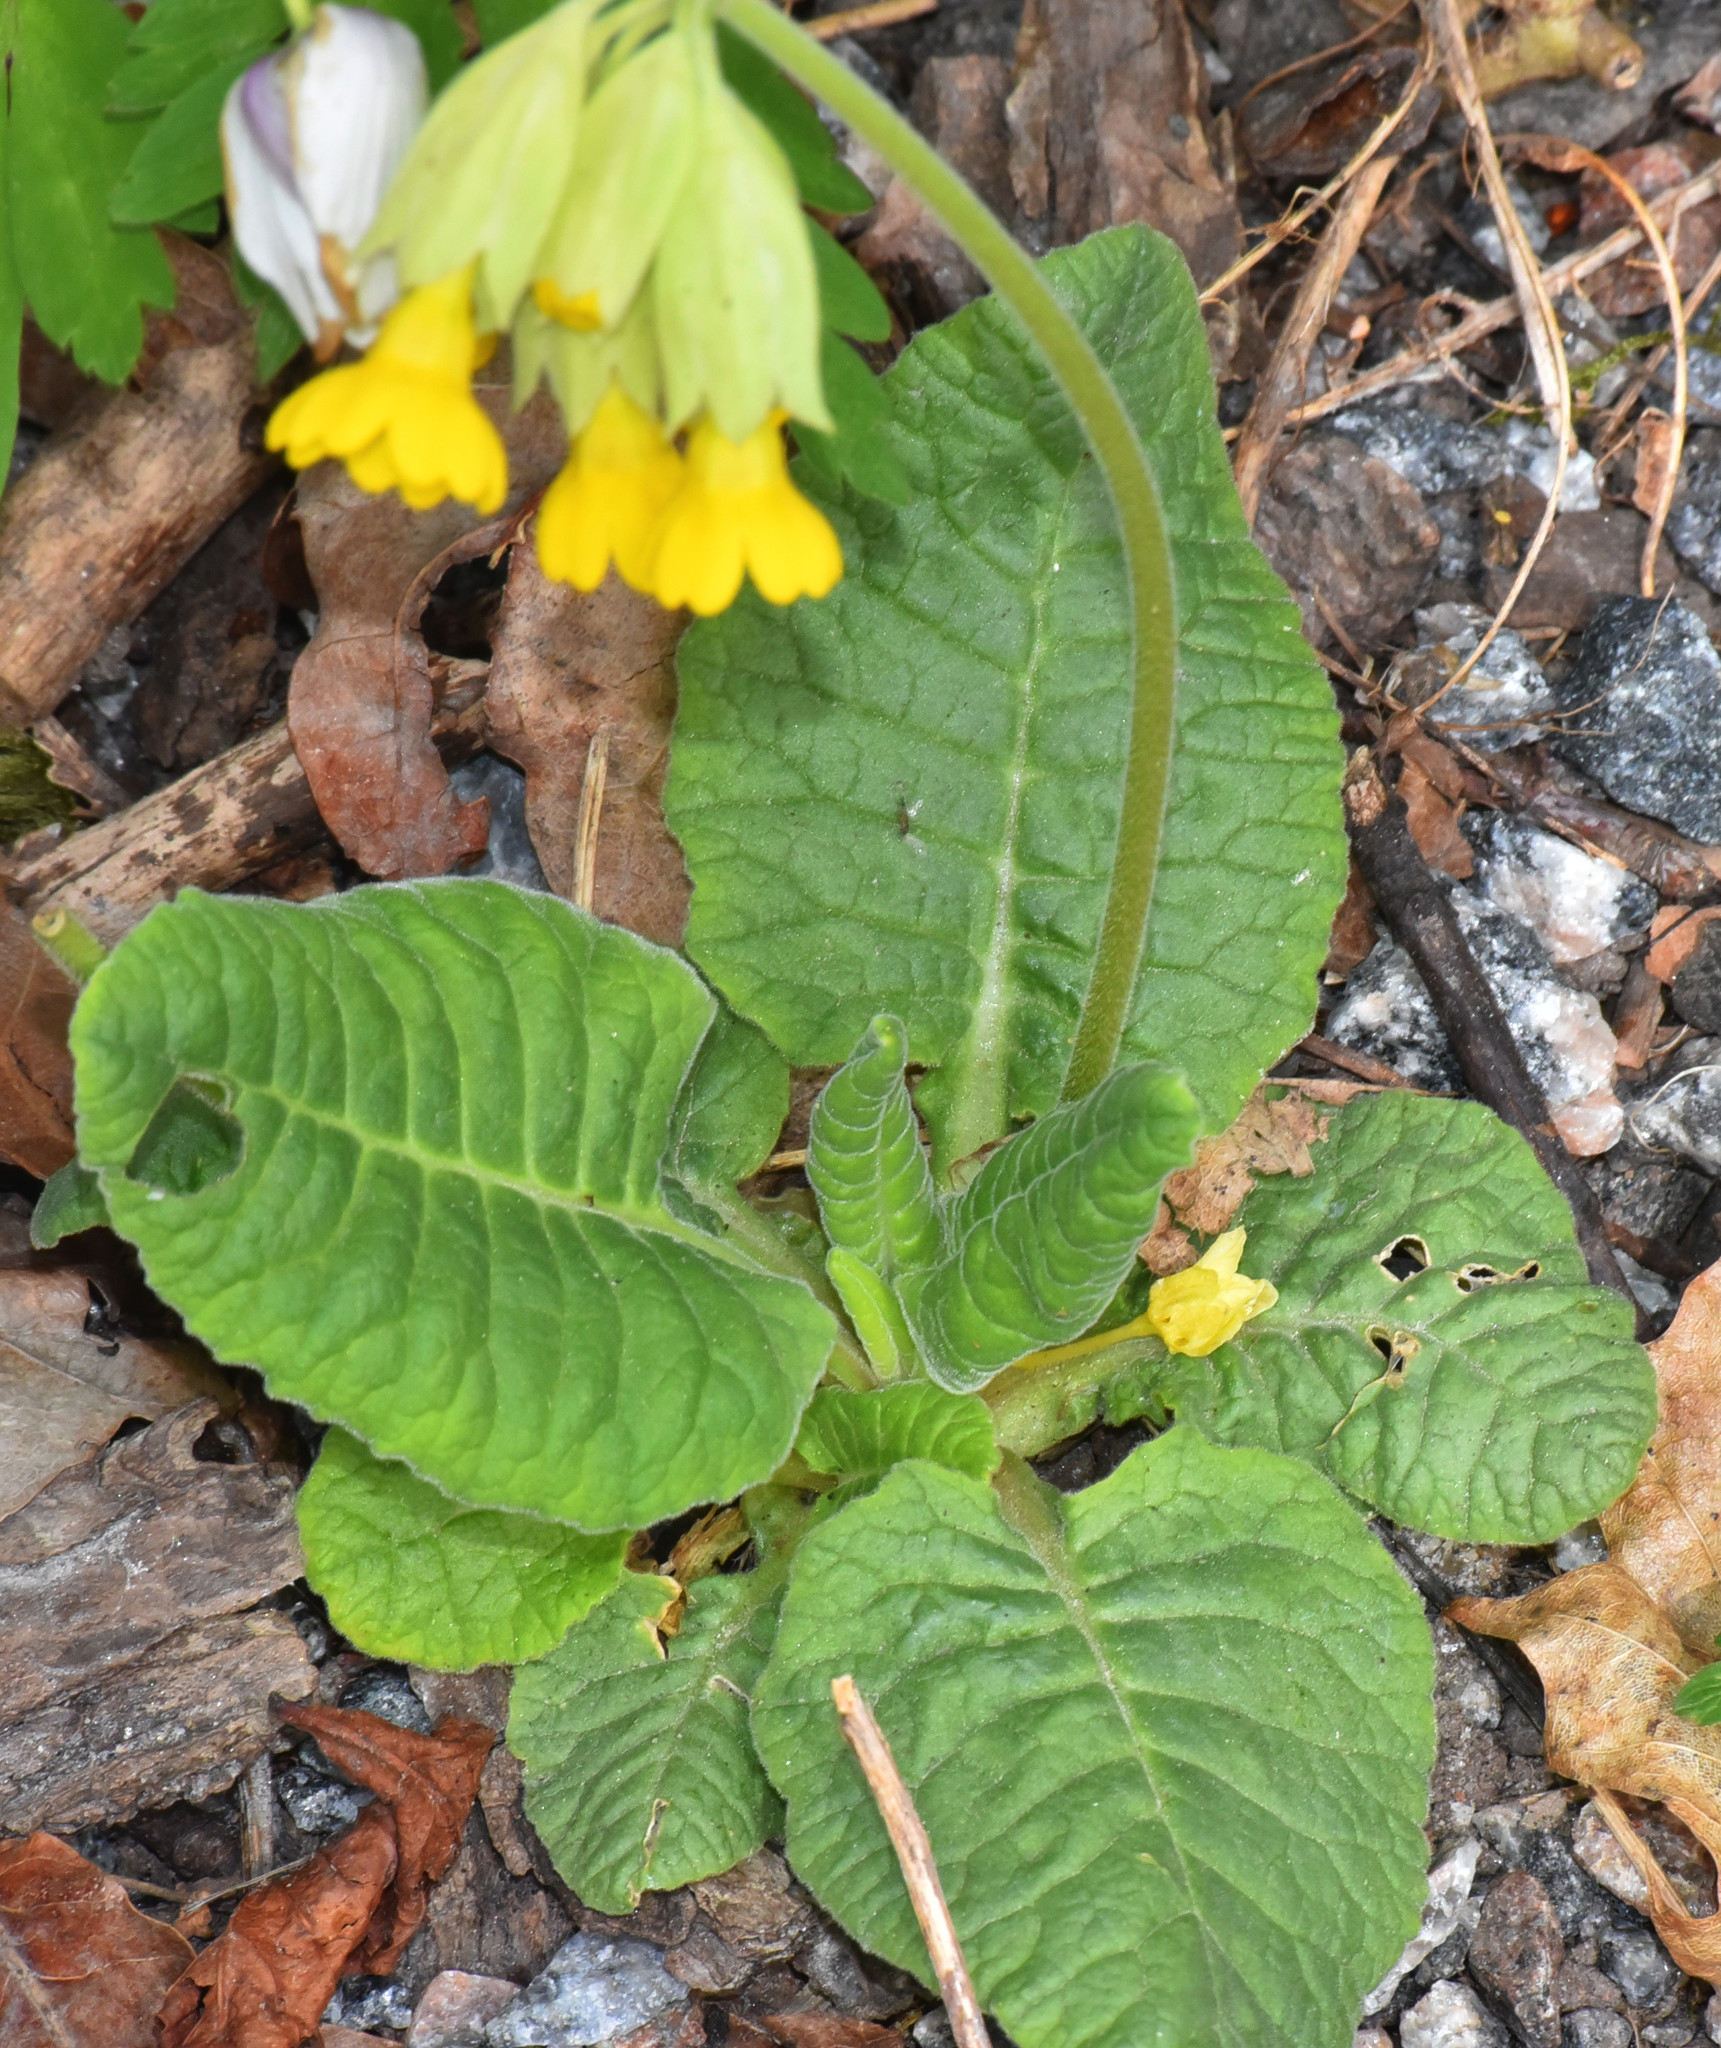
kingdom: Plantae
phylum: Tracheophyta
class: Magnoliopsida
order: Ericales
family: Primulaceae
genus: Primula
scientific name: Primula veris
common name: Cowslip
